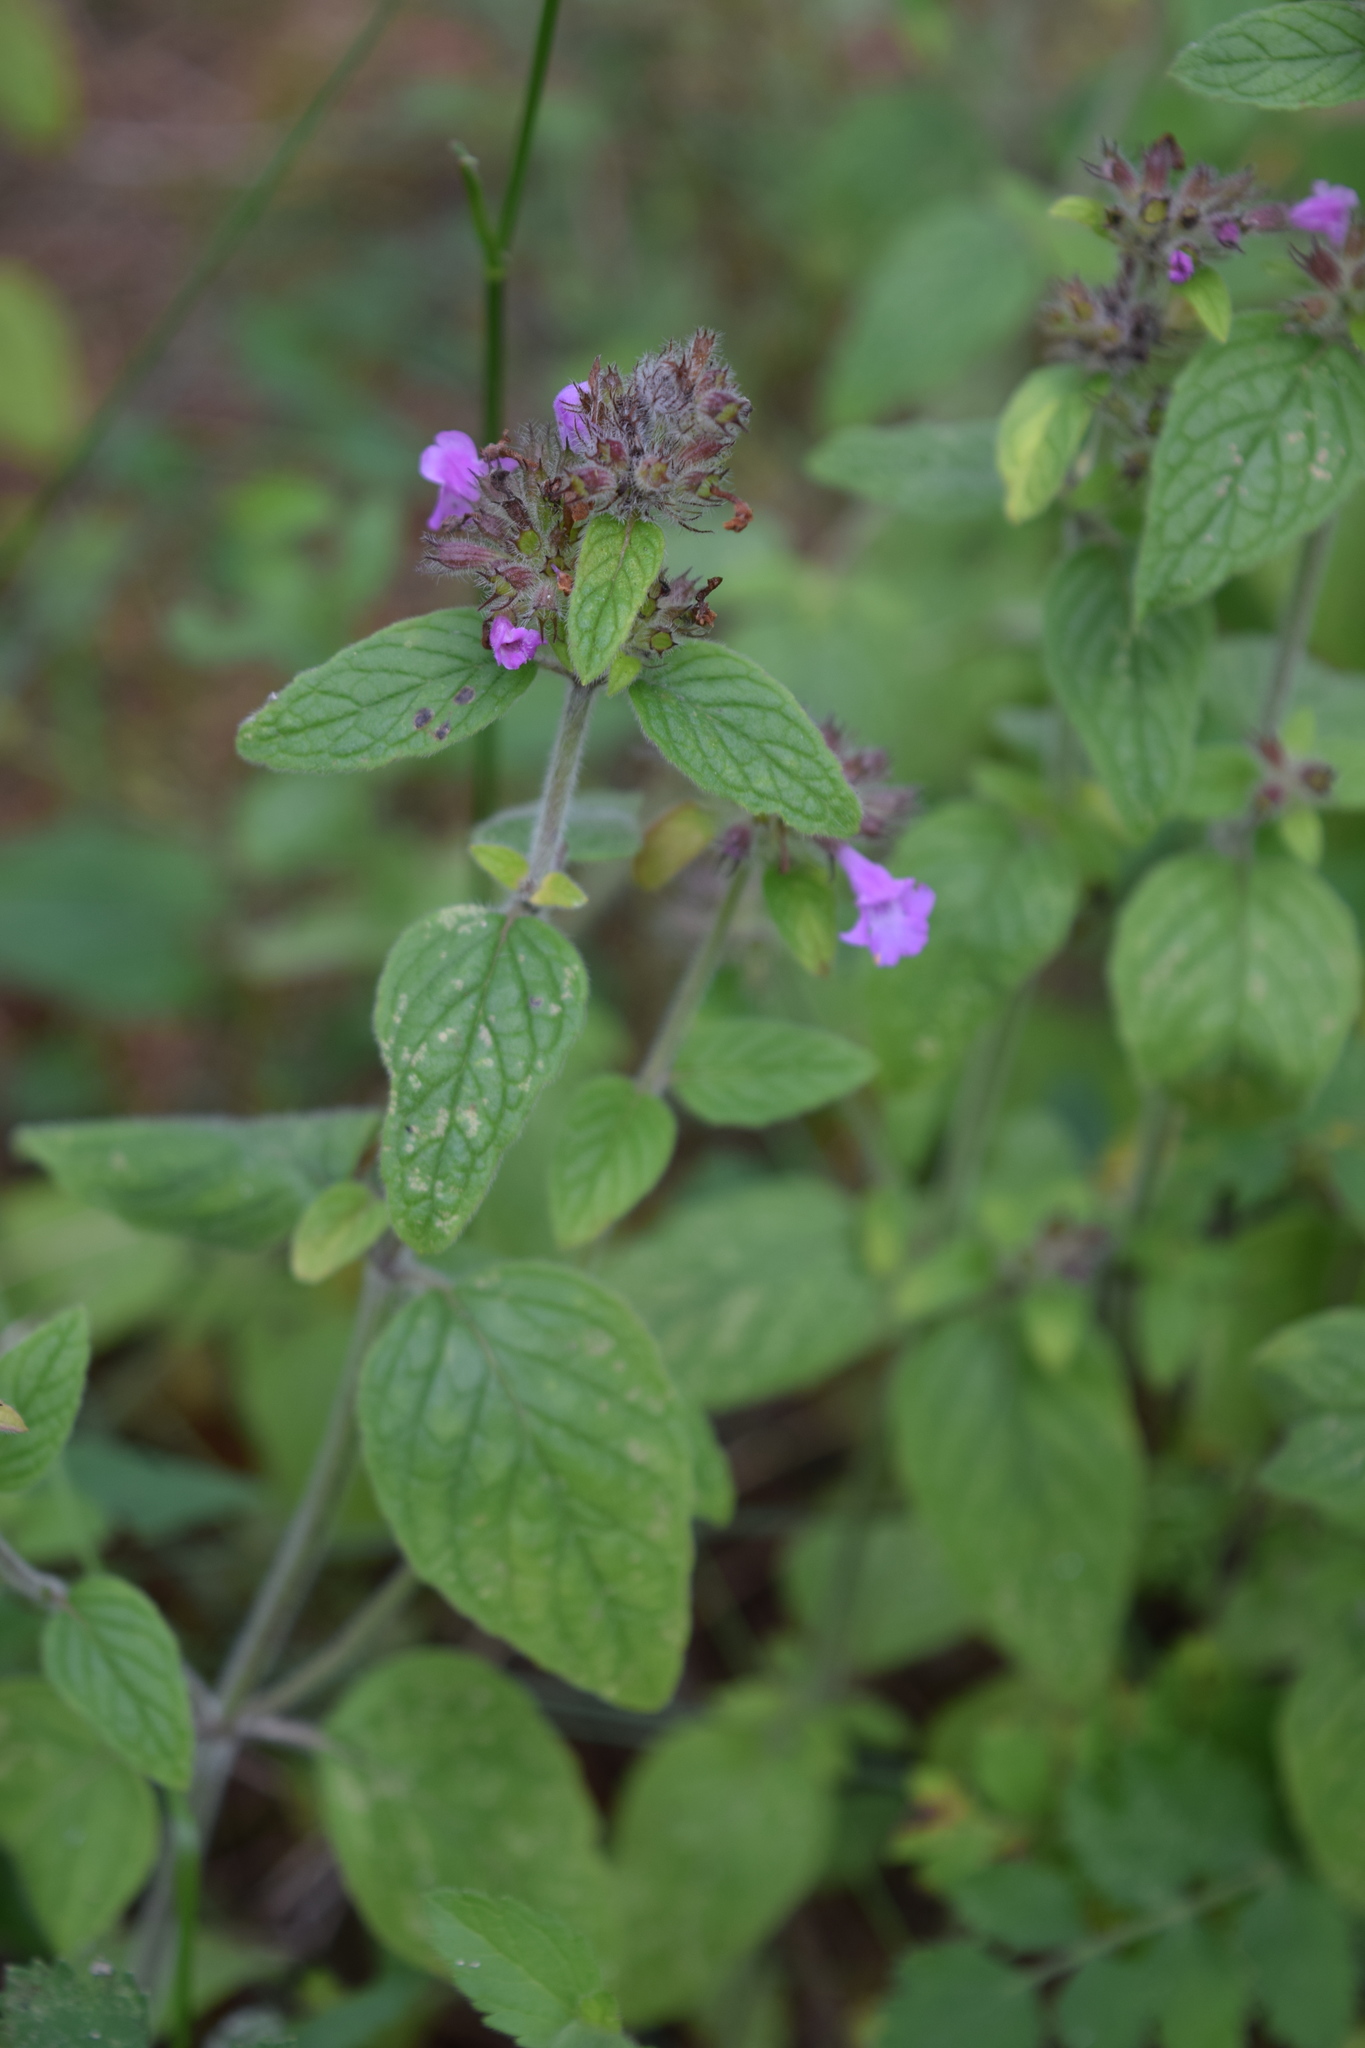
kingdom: Plantae
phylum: Tracheophyta
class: Magnoliopsida
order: Lamiales
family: Lamiaceae
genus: Clinopodium
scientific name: Clinopodium vulgare
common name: Wild basil
